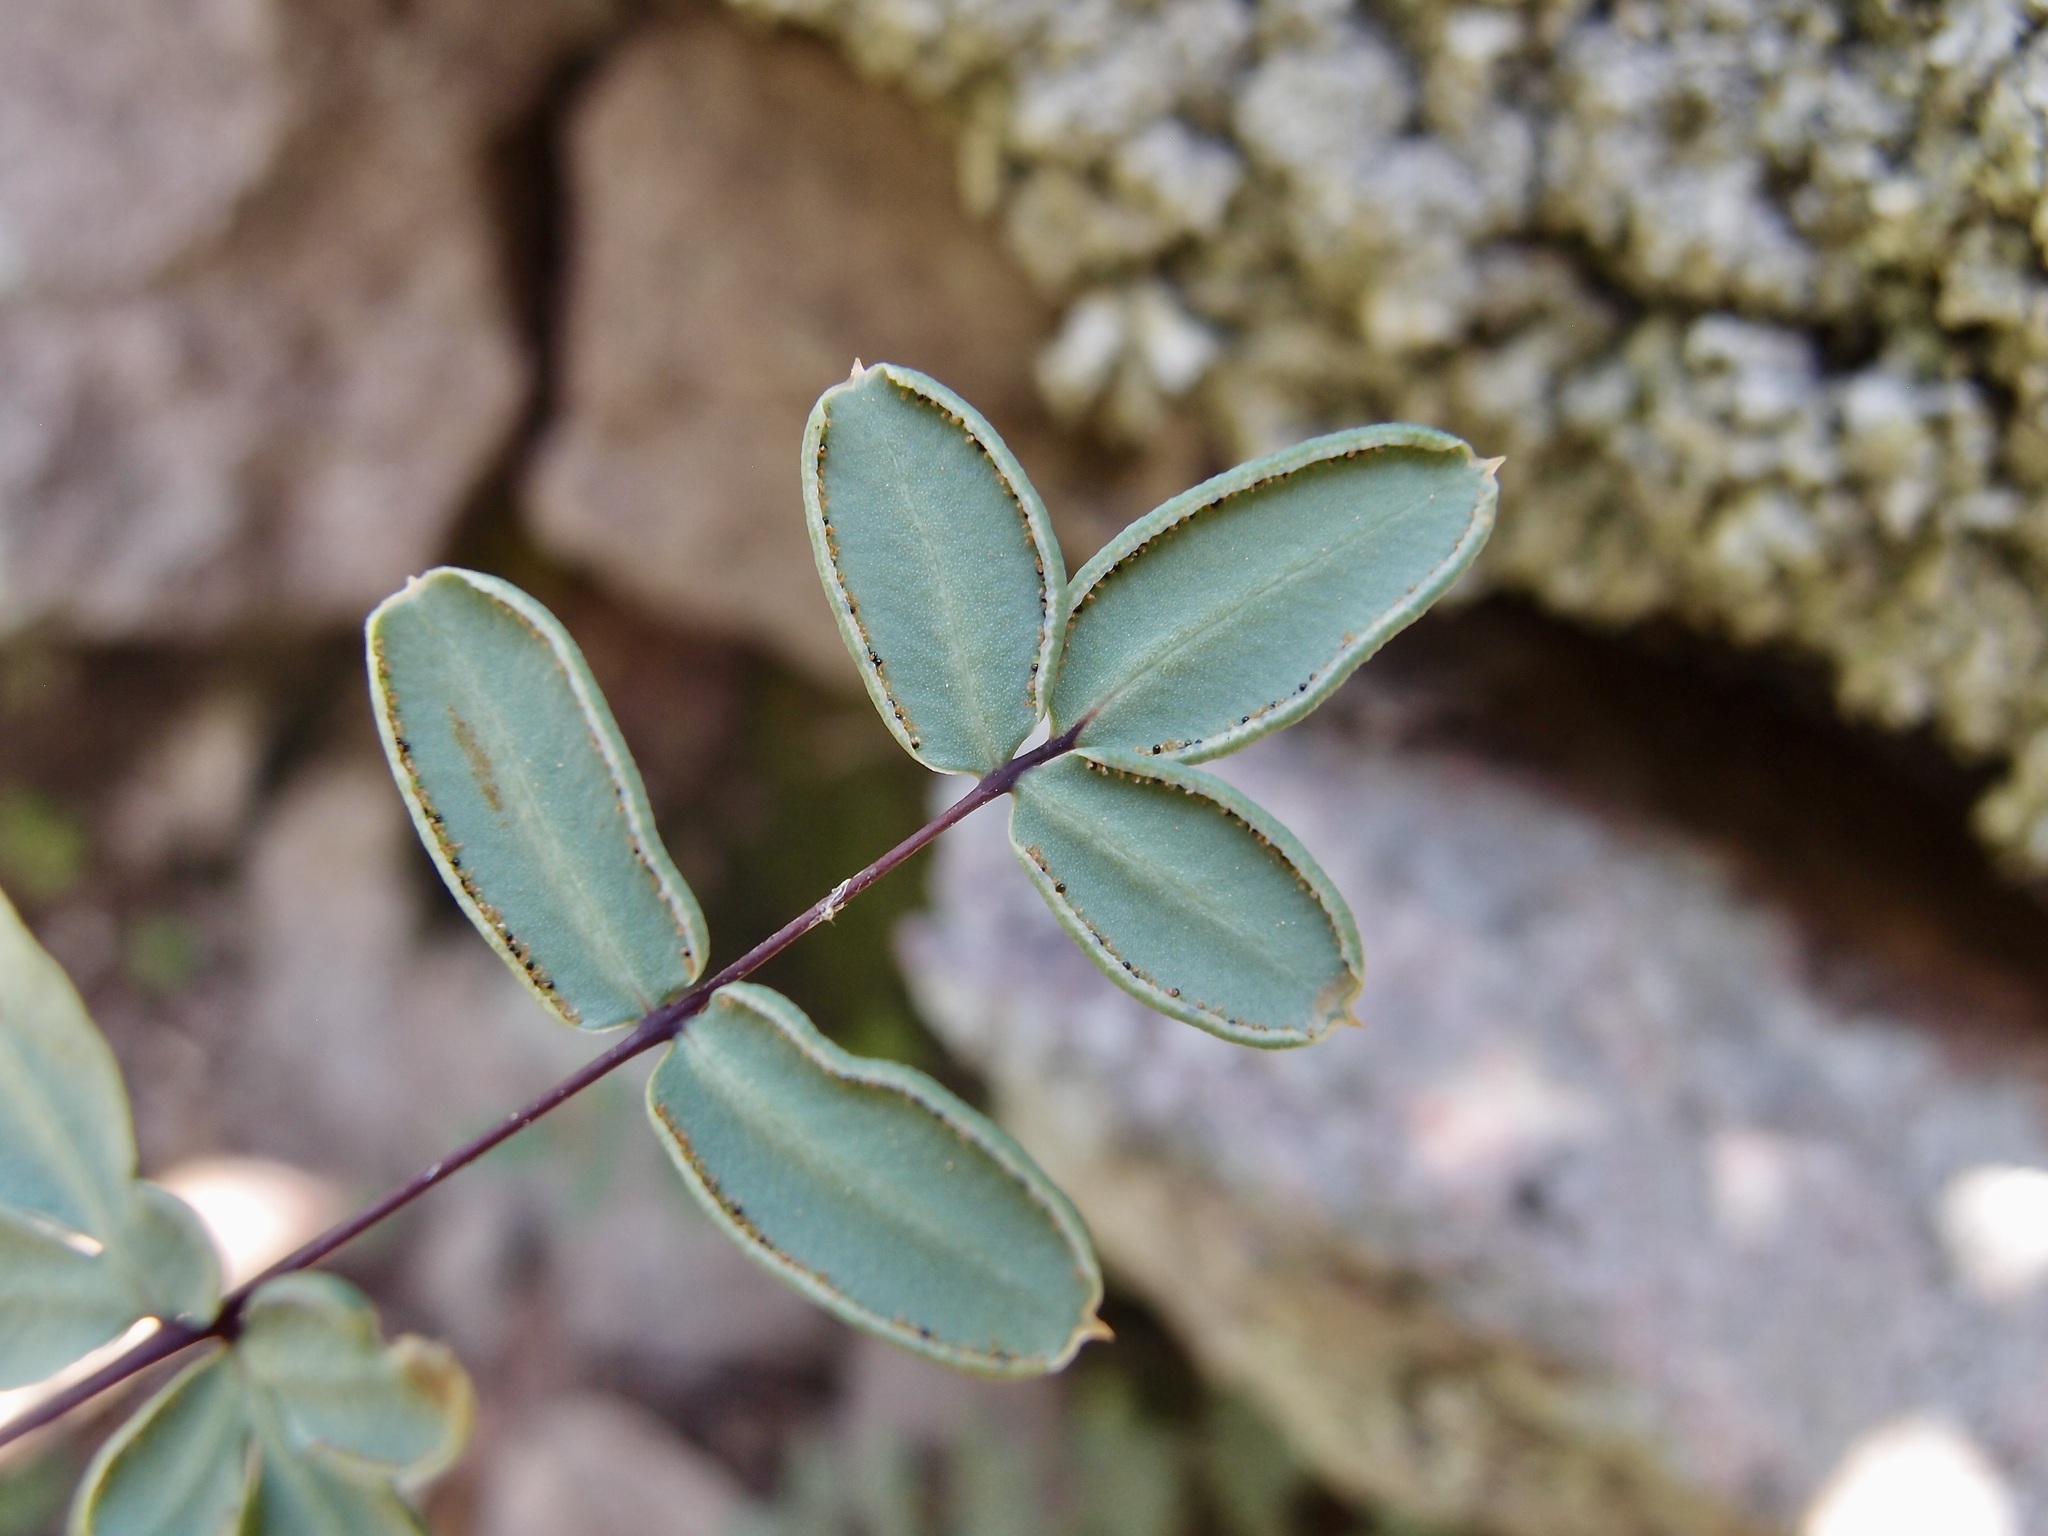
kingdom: Plantae
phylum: Tracheophyta
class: Polypodiopsida
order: Polypodiales
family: Pteridaceae
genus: Pellaea
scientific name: Pellaea wrightiana
